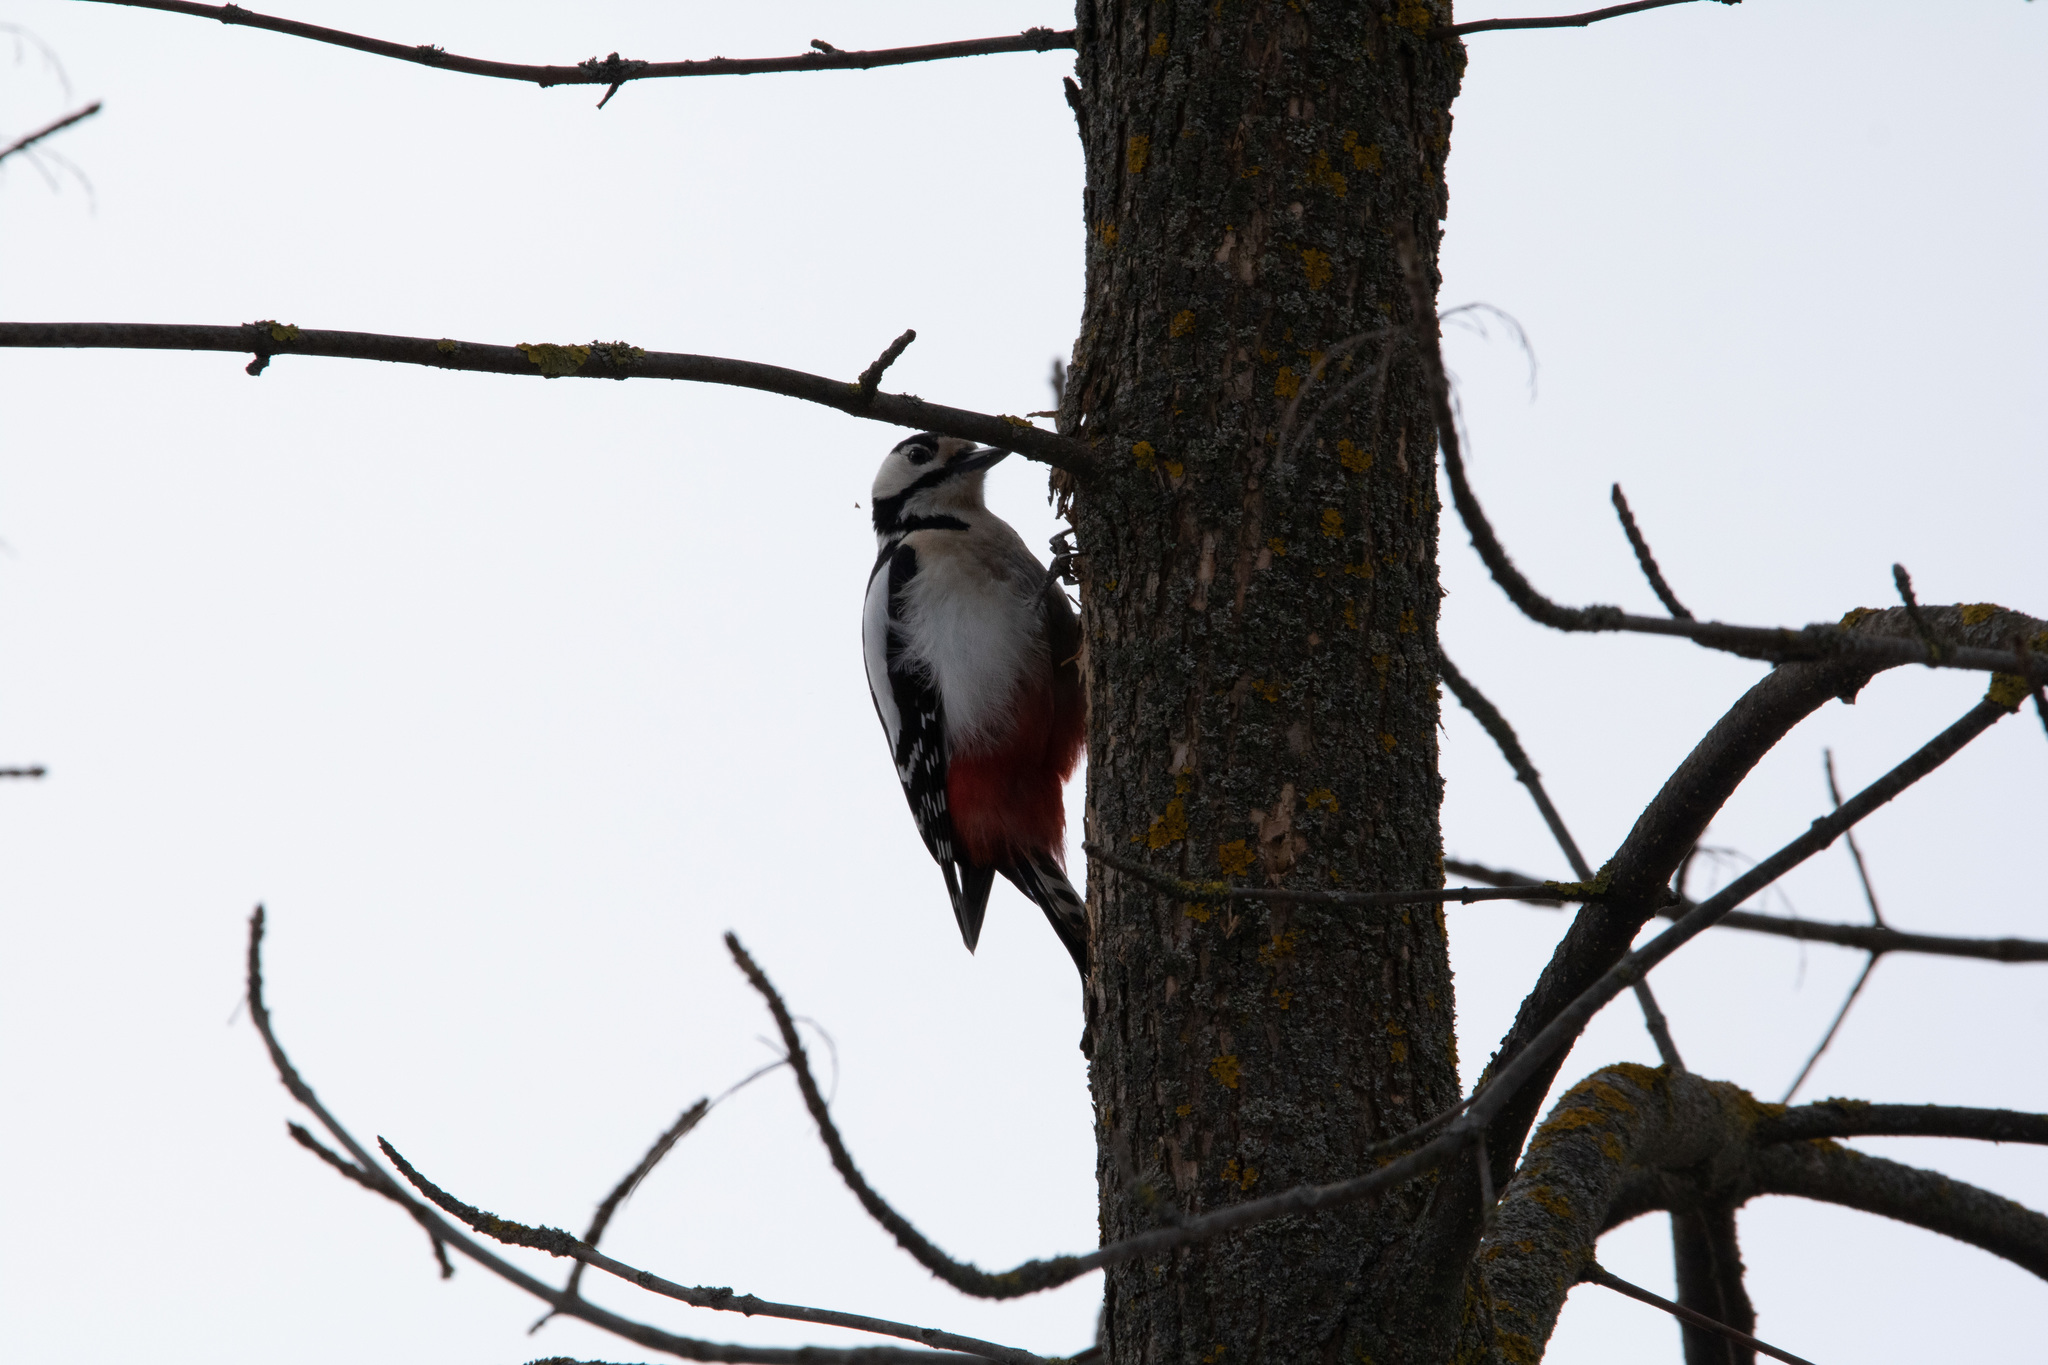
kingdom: Animalia
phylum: Chordata
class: Aves
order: Piciformes
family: Picidae
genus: Dendrocopos
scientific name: Dendrocopos major
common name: Great spotted woodpecker
